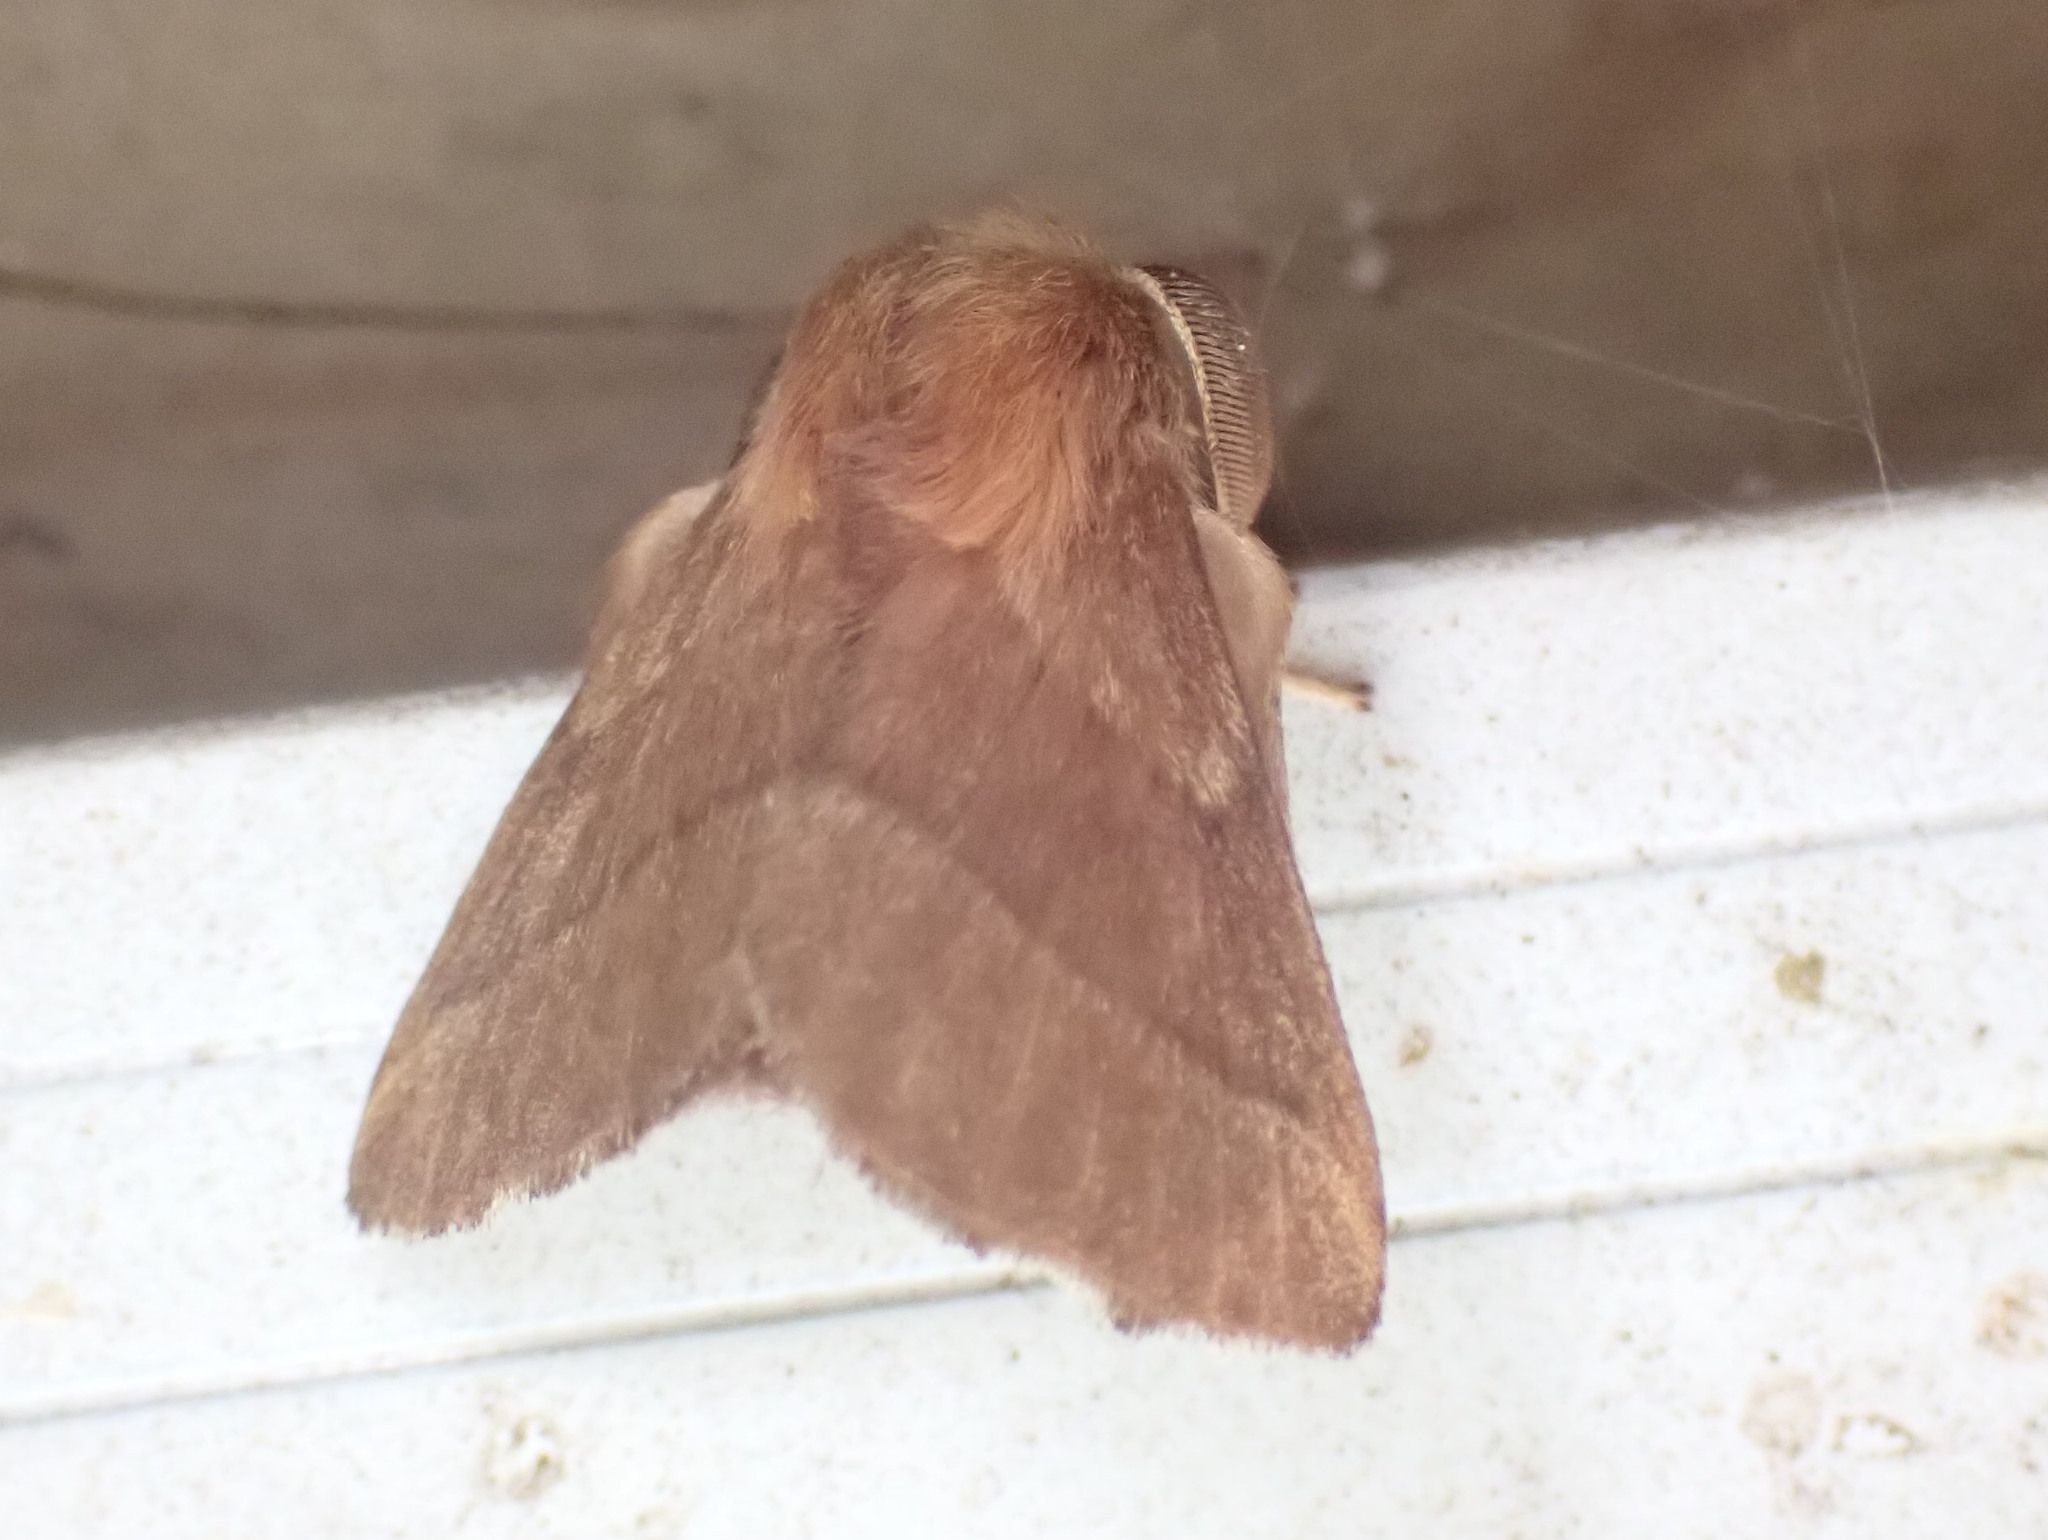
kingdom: Animalia
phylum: Arthropoda
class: Insecta
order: Lepidoptera
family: Lasiocampidae
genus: Malacosoma
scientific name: Malacosoma disstria
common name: Forest tent caterpillar
